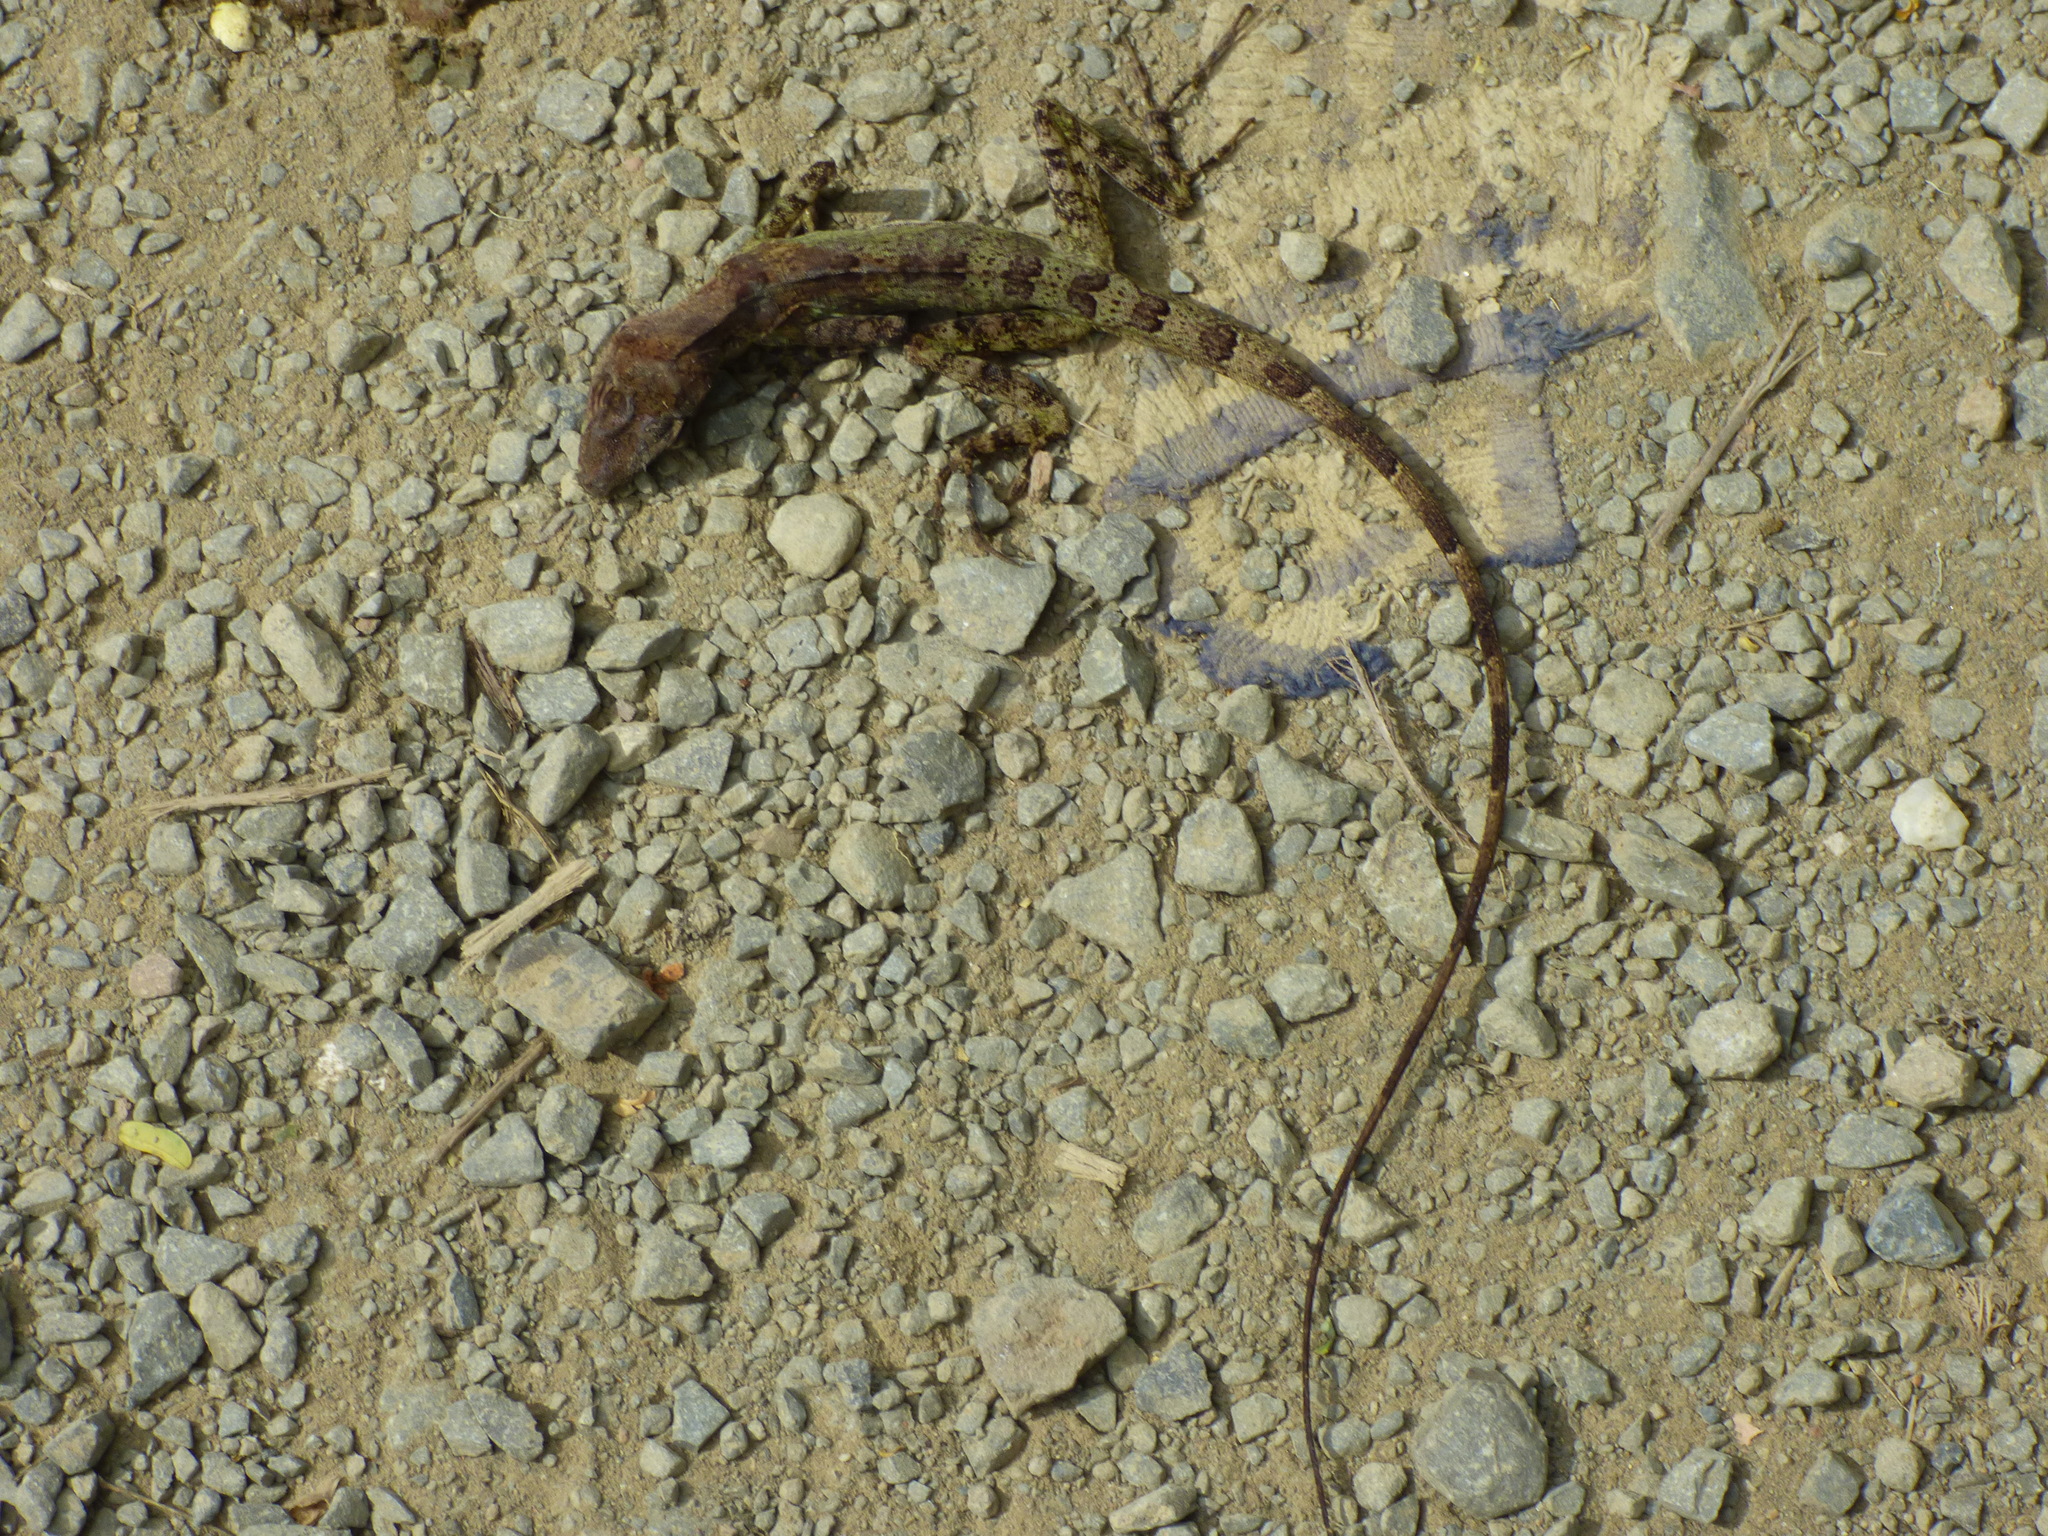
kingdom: Animalia
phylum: Chordata
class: Squamata
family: Dactyloidae
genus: Anolis
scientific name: Anolis eulaemus
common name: Good anole
